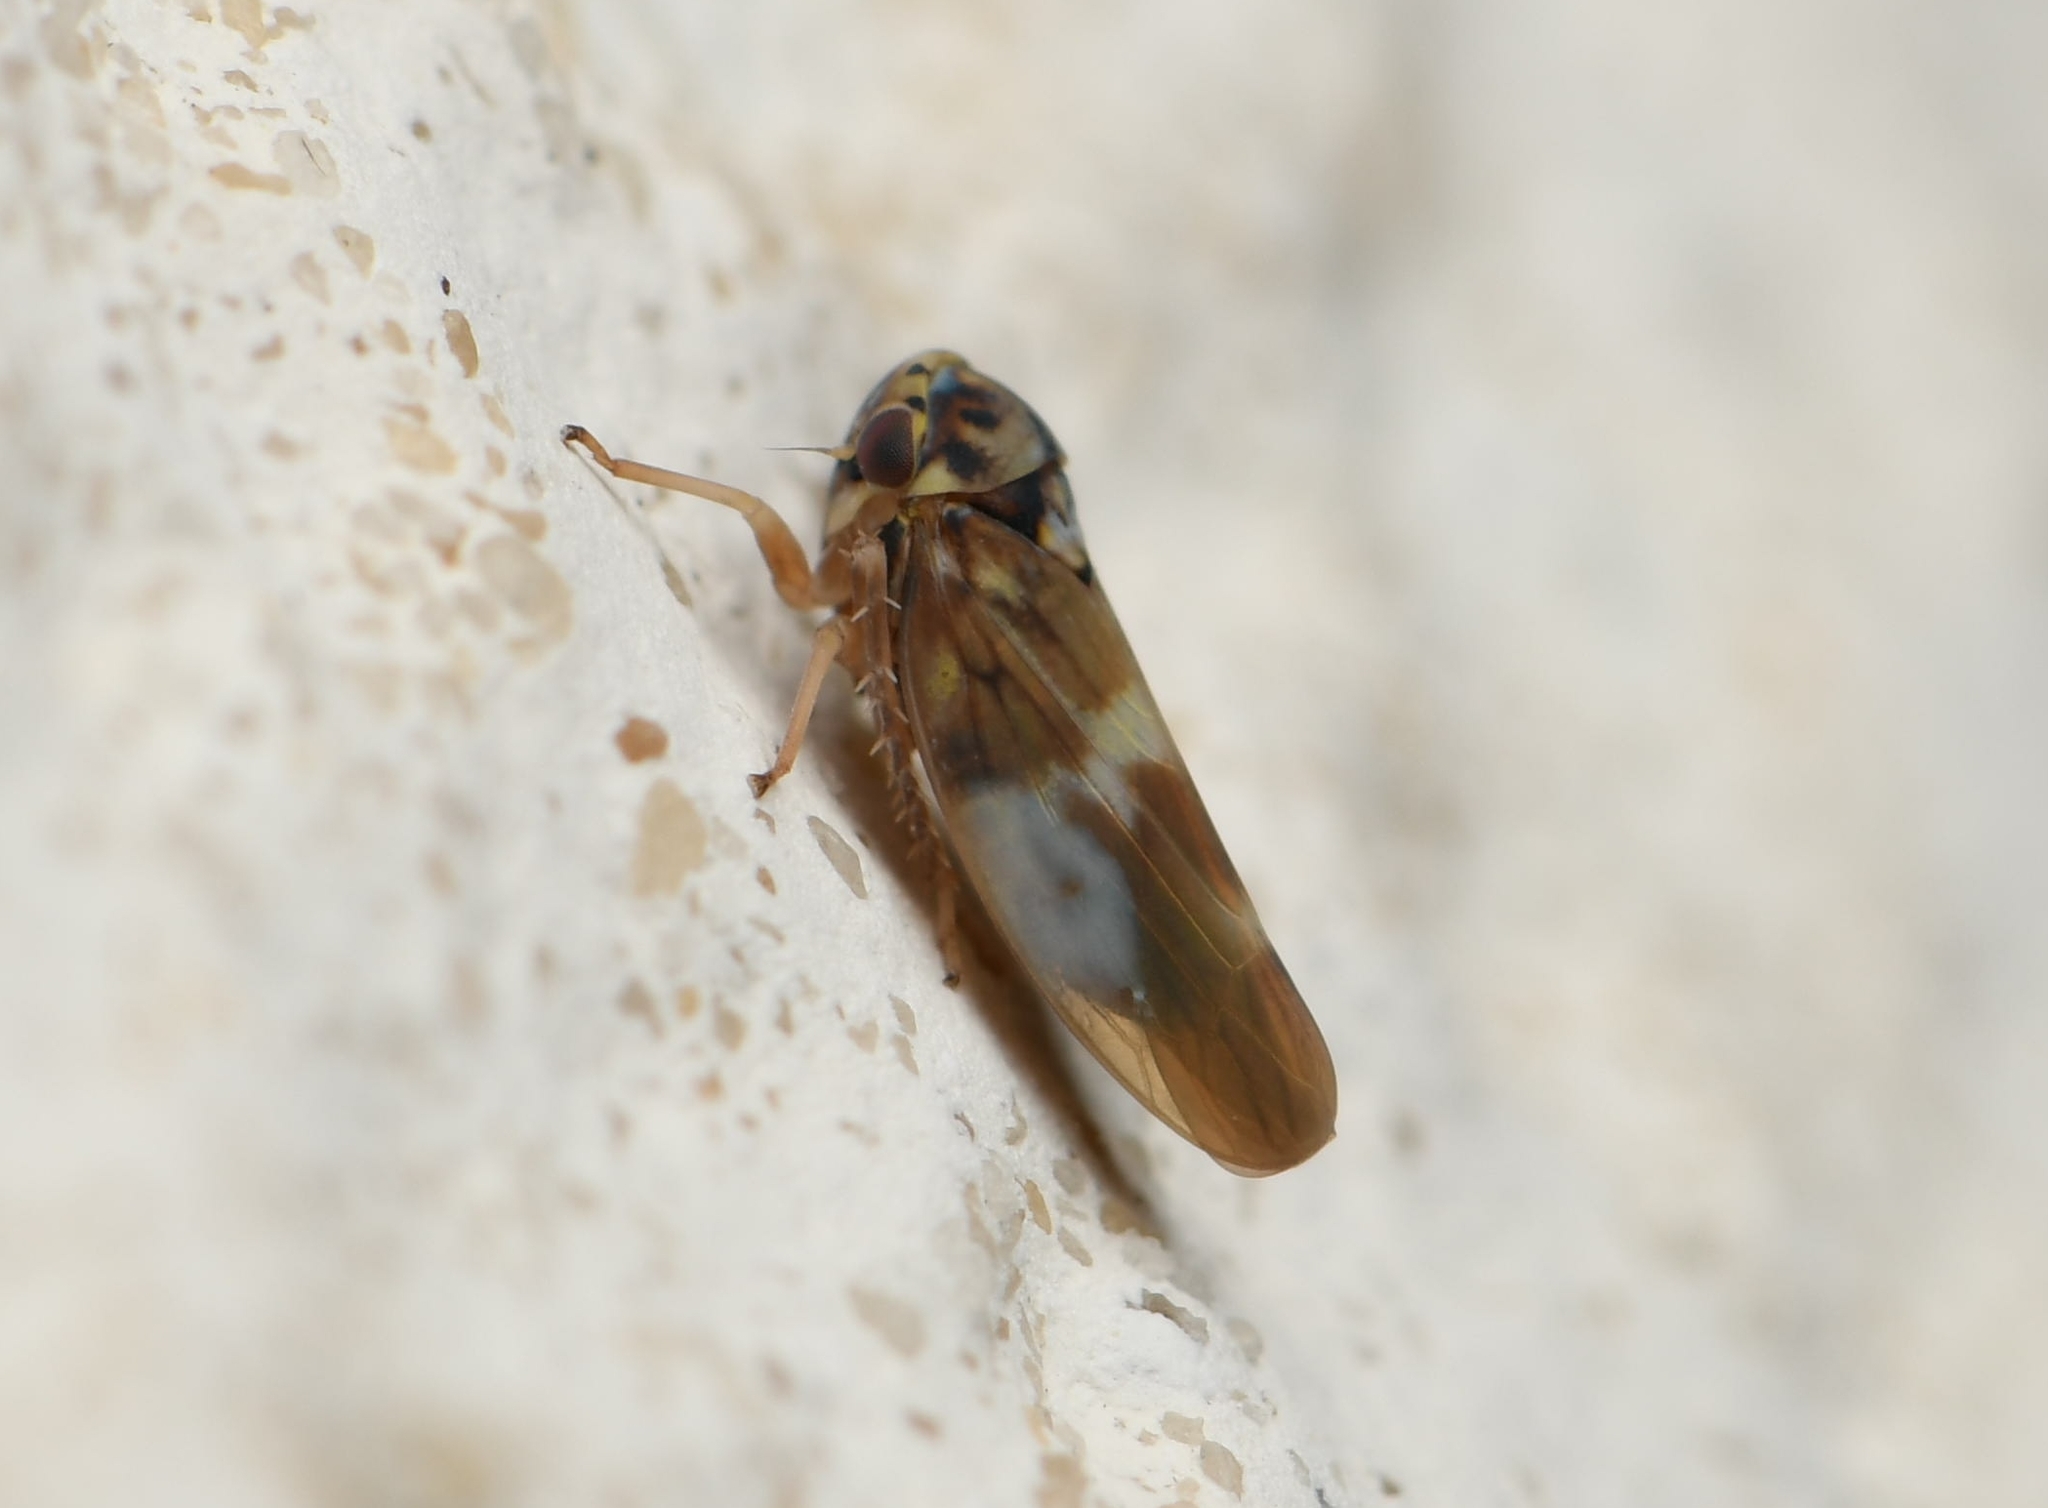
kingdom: Animalia
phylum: Arthropoda
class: Insecta
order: Hemiptera
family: Cicadellidae
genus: Agalliopsis
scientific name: Agalliopsis cervina
